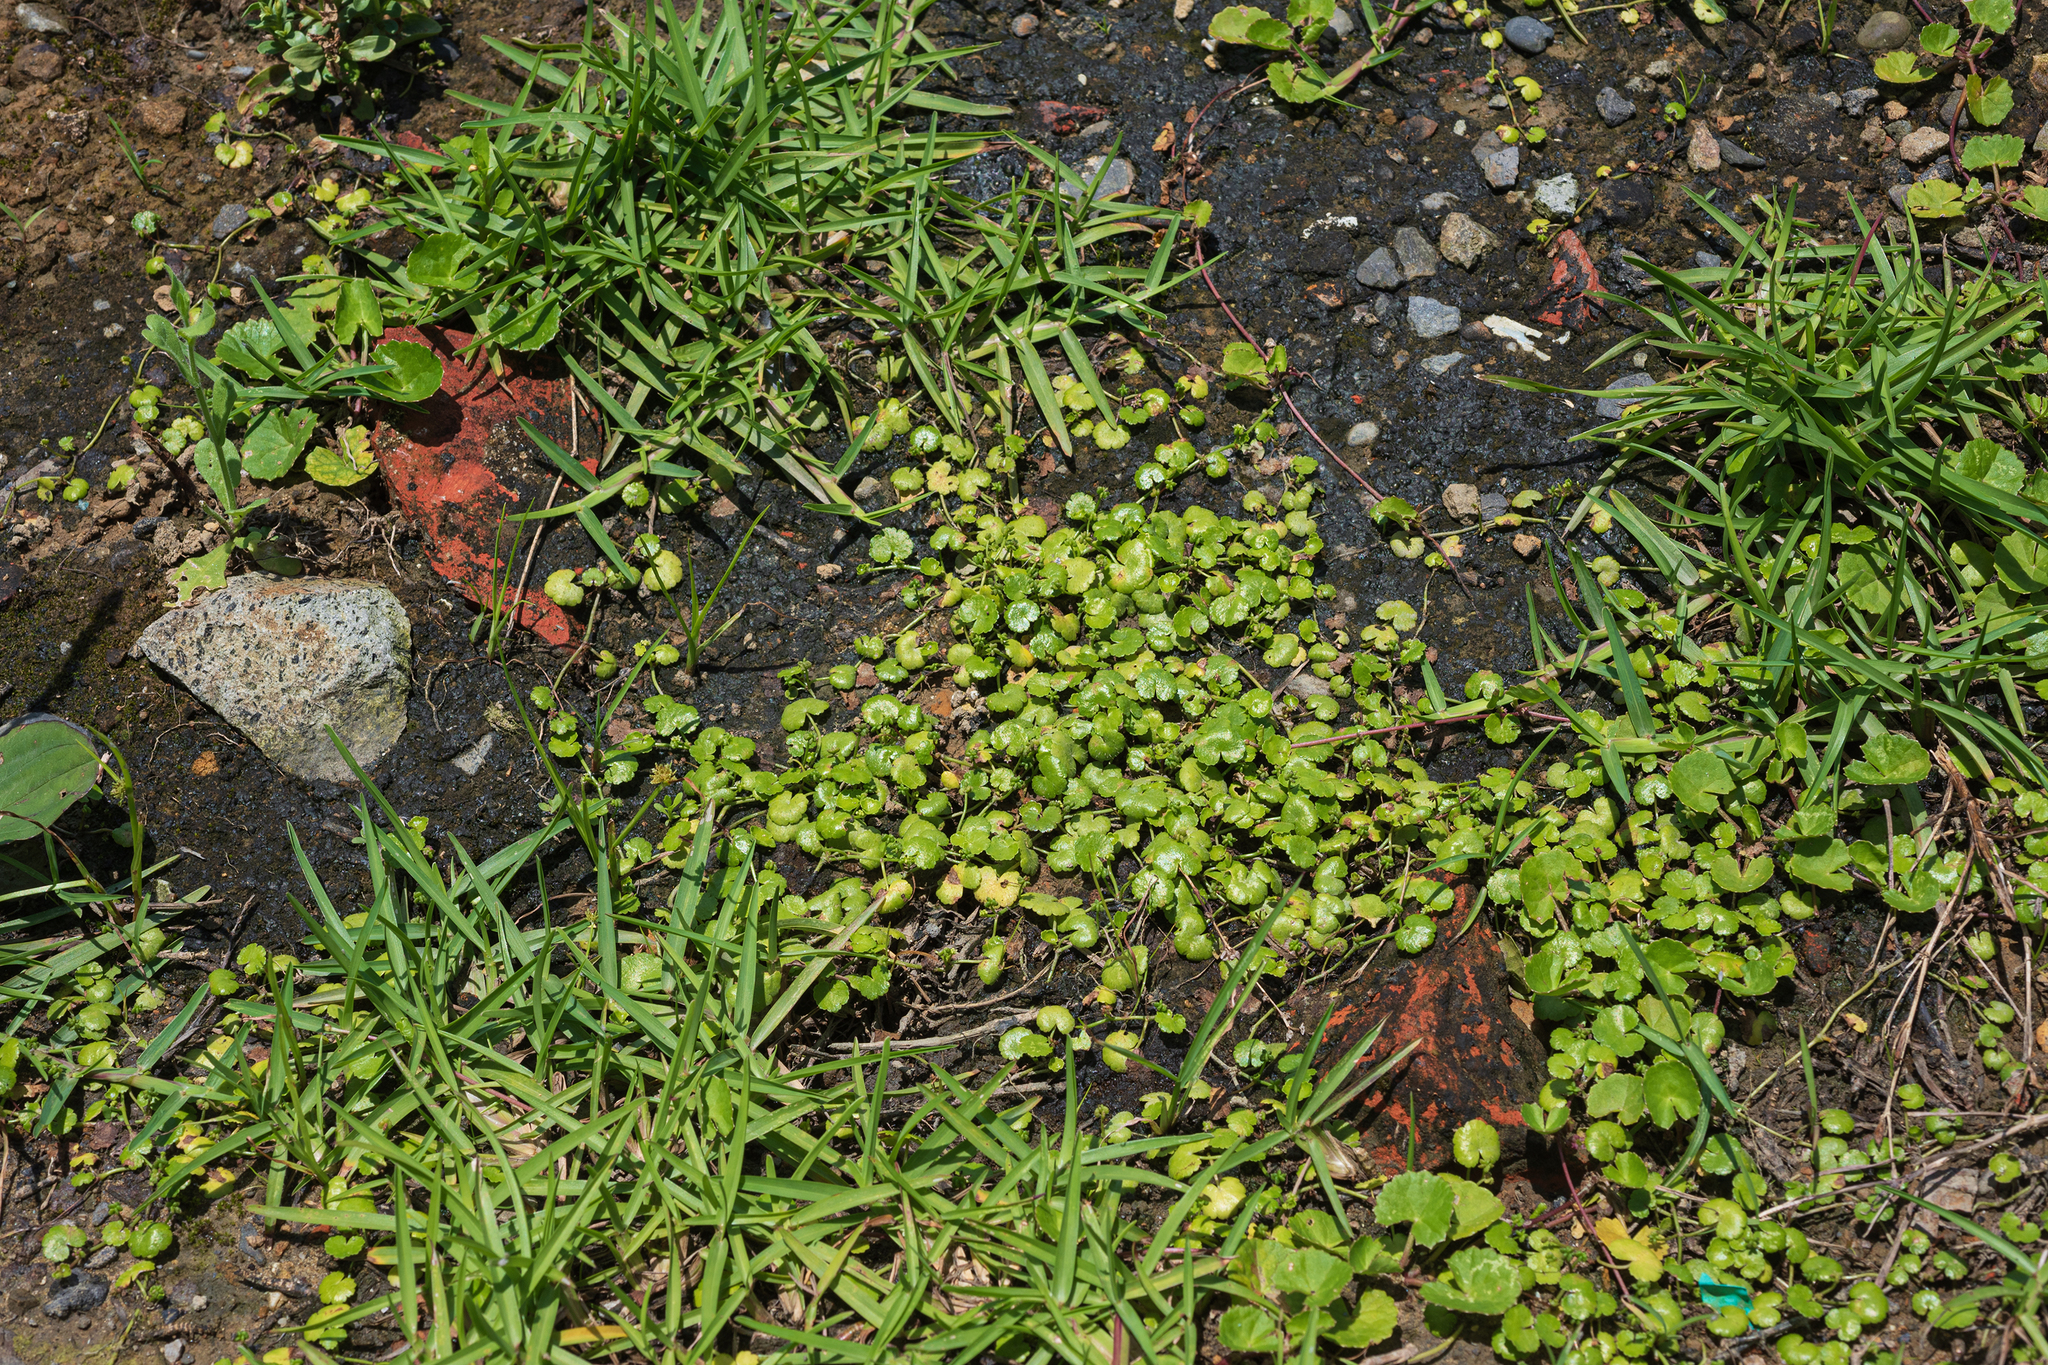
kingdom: Plantae
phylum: Tracheophyta
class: Magnoliopsida
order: Apiales
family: Araliaceae
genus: Hydrocotyle
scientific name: Hydrocotyle tuberifera
